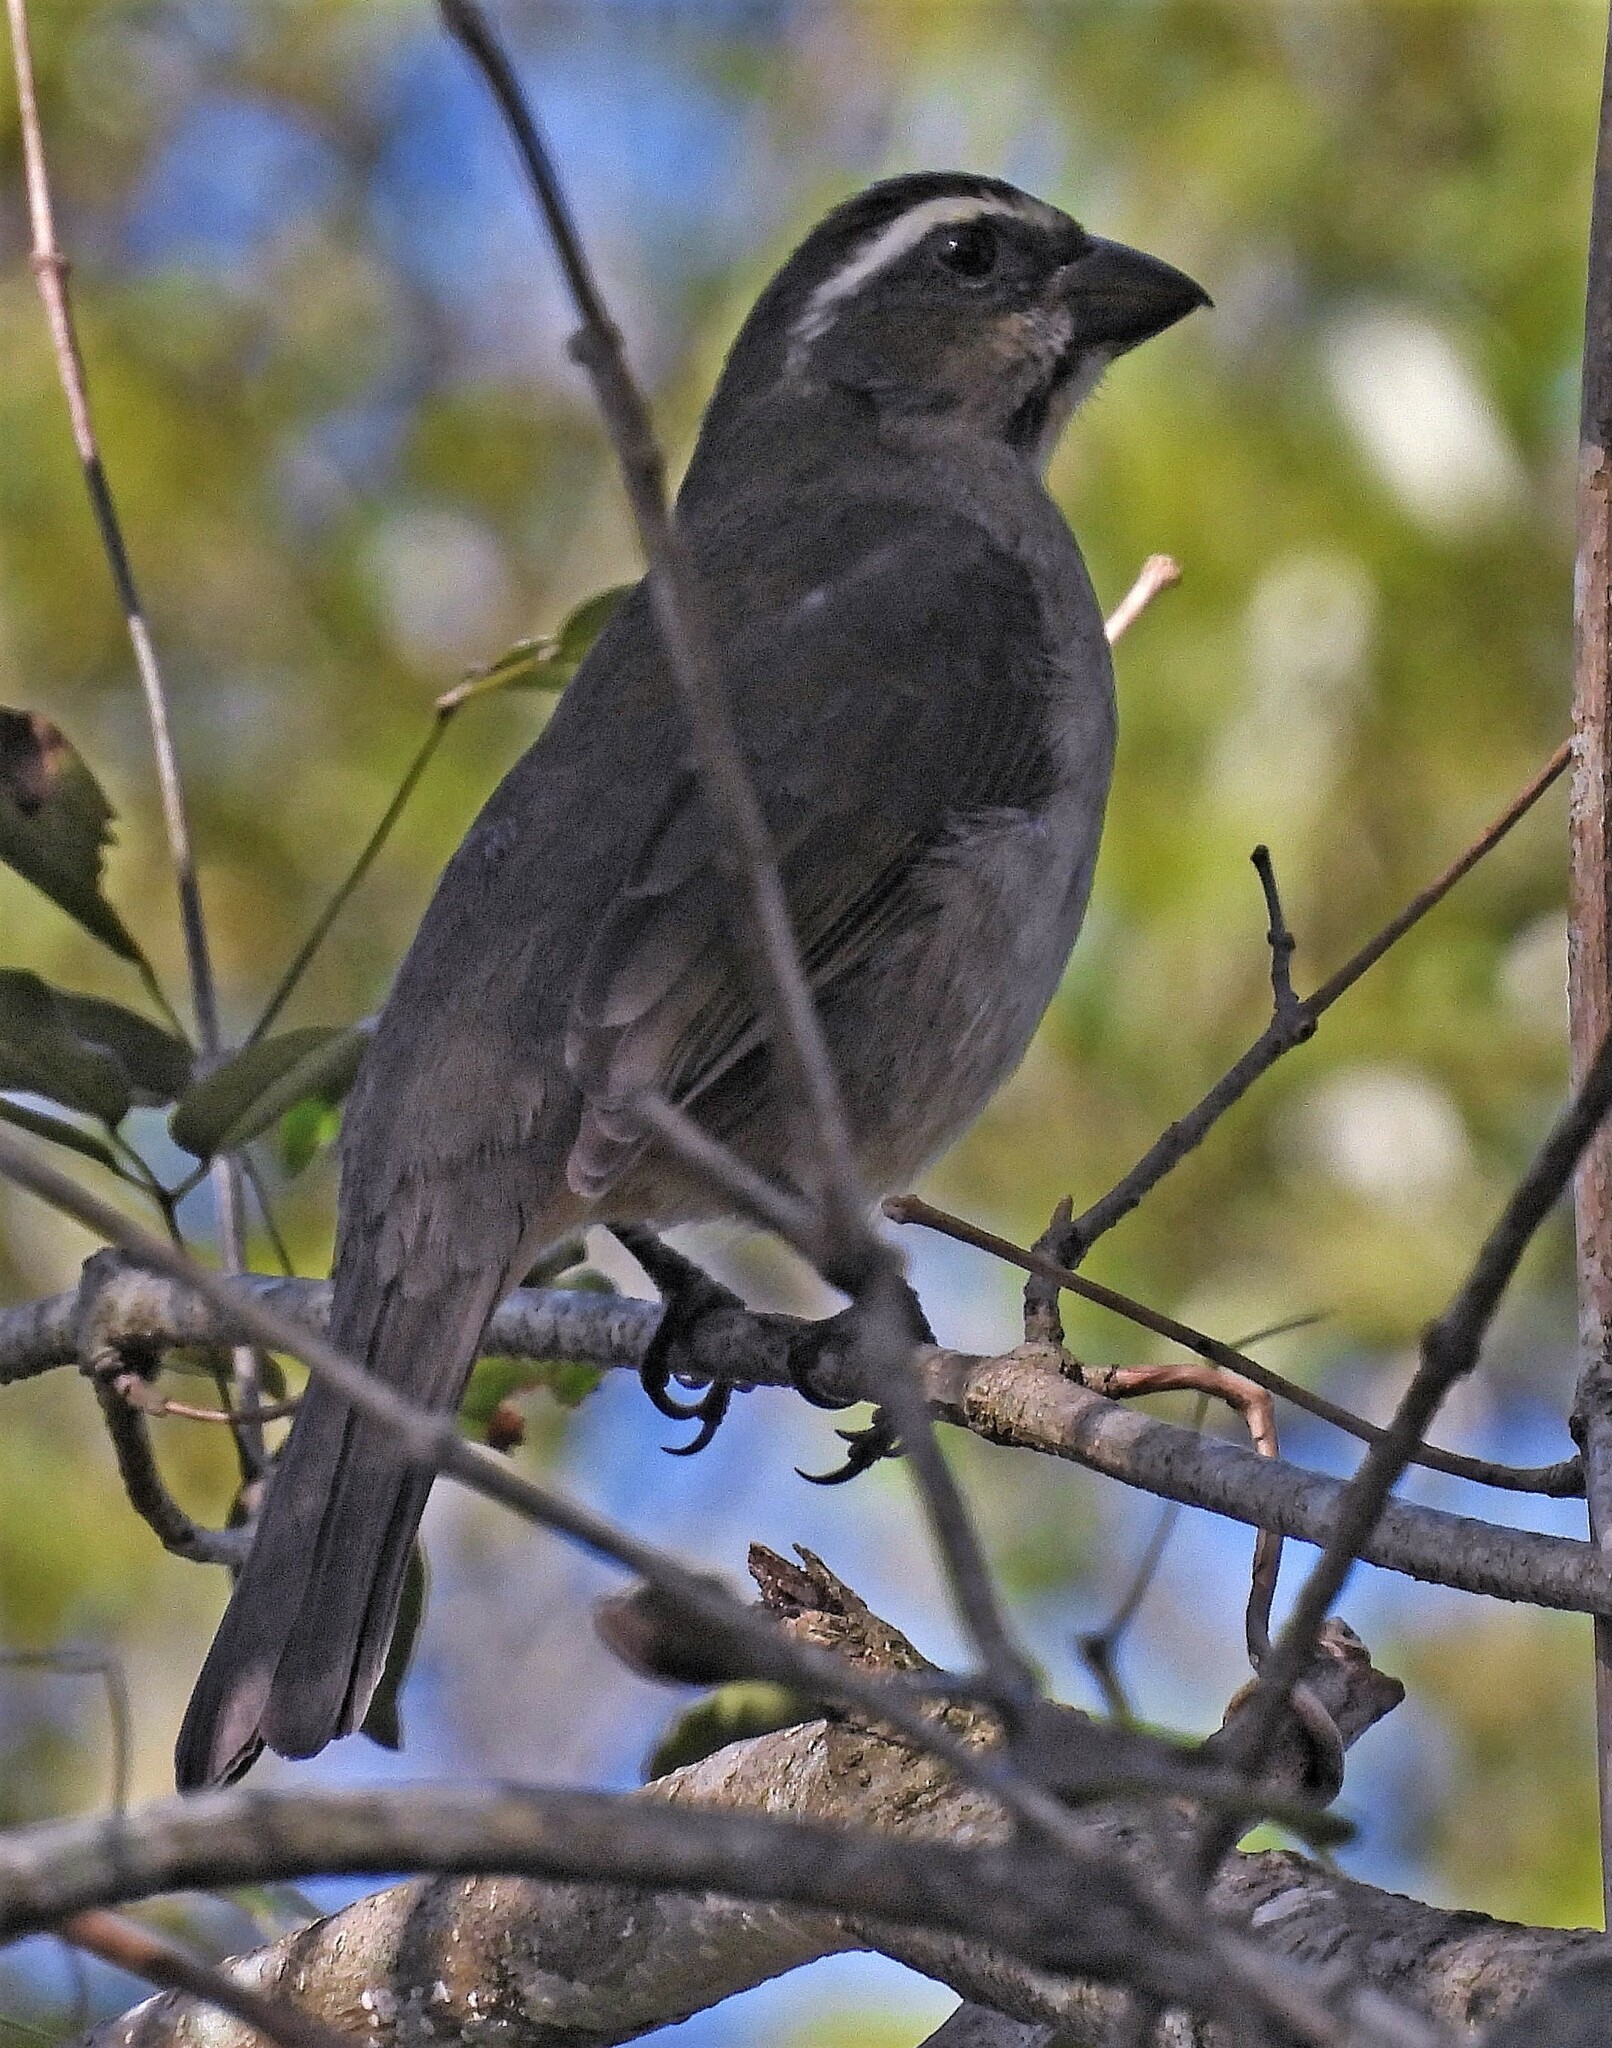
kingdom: Animalia
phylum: Chordata
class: Aves
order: Passeriformes
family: Thraupidae
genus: Saltator
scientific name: Saltator maxillosus
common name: Thick-billed saltator
